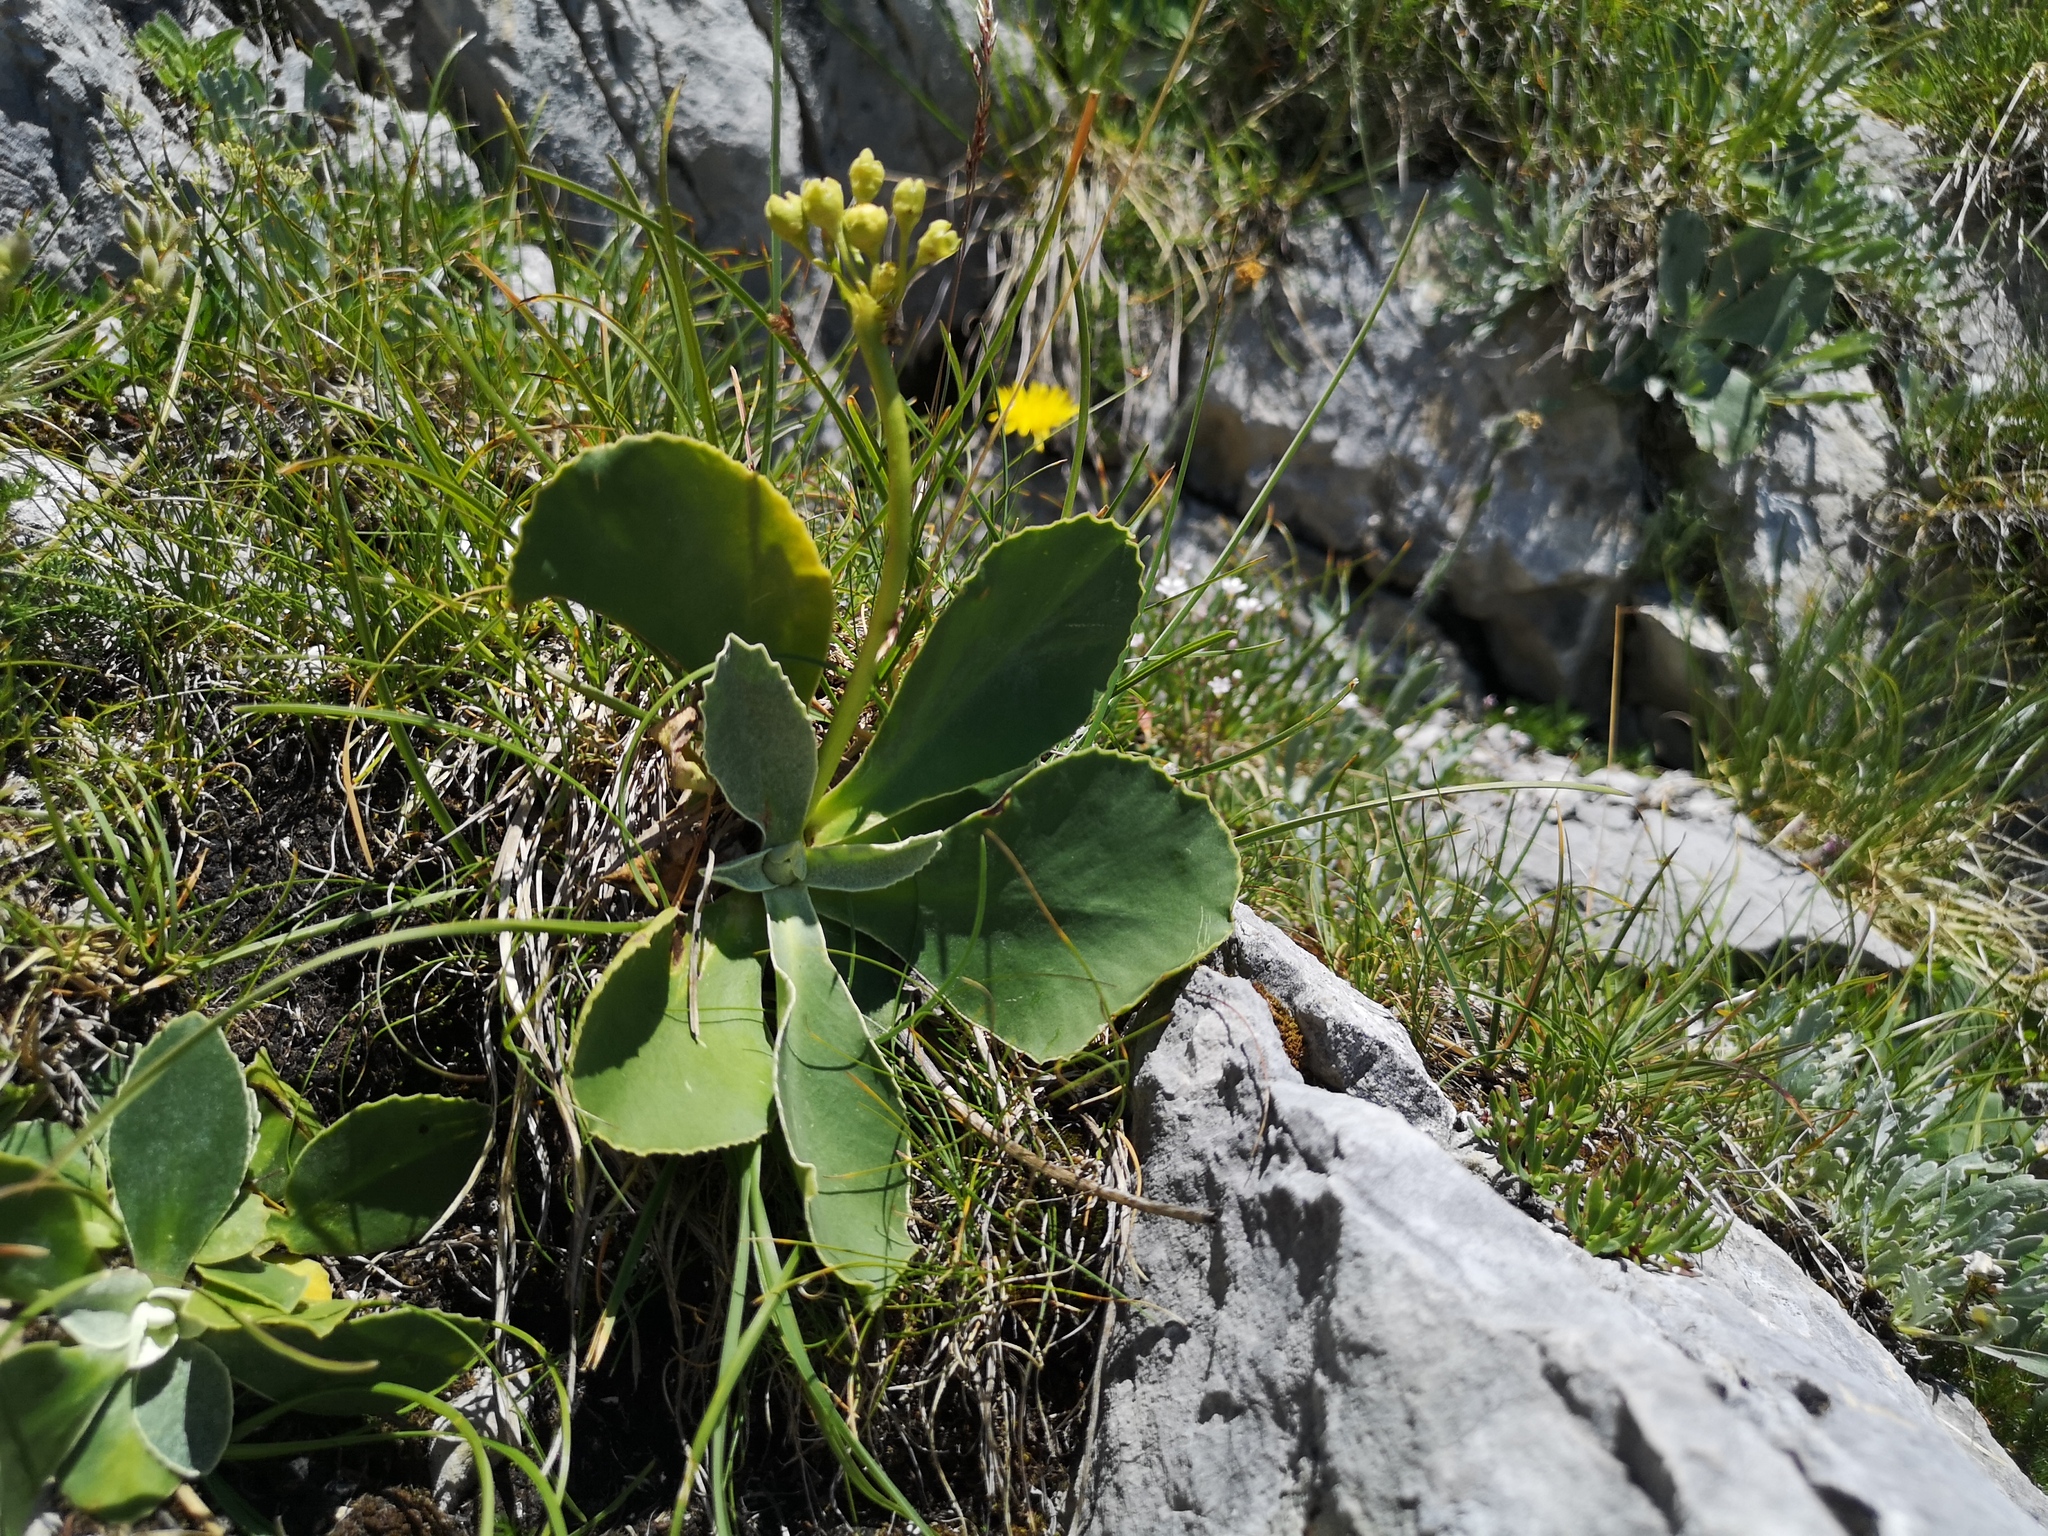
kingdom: Plantae
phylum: Tracheophyta
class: Magnoliopsida
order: Ericales
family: Primulaceae
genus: Primula
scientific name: Primula auricula
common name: Auricula
